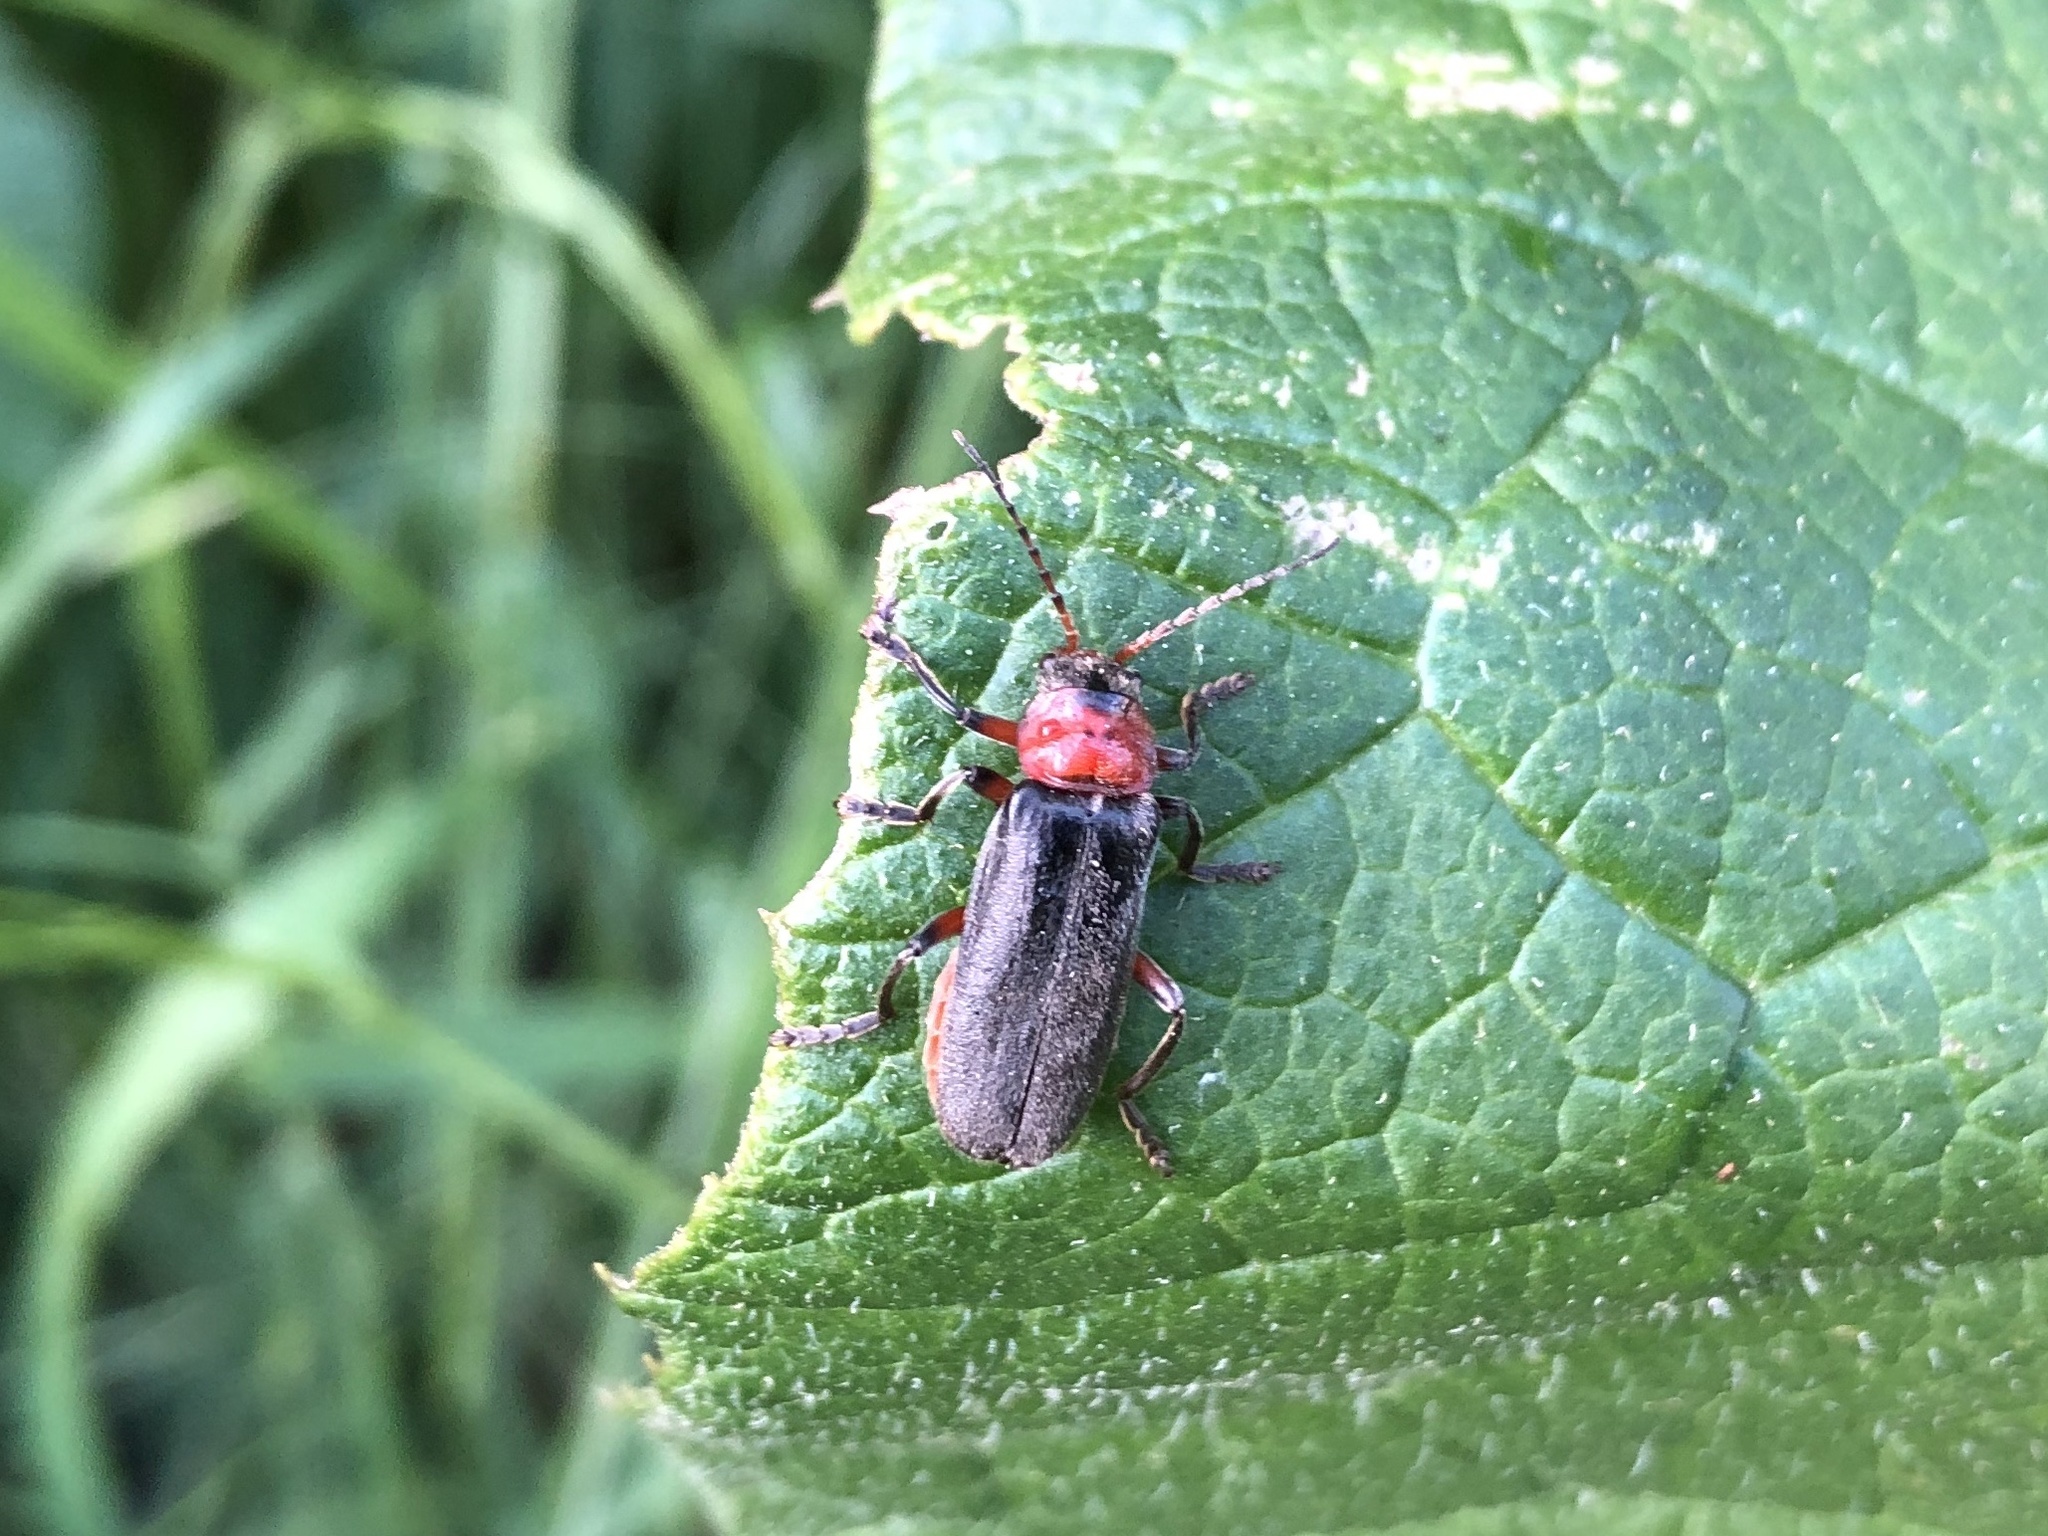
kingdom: Animalia
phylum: Arthropoda
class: Insecta
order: Coleoptera
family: Cantharidae
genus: Cantharis
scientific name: Cantharis rustica
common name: Soldier beetle
